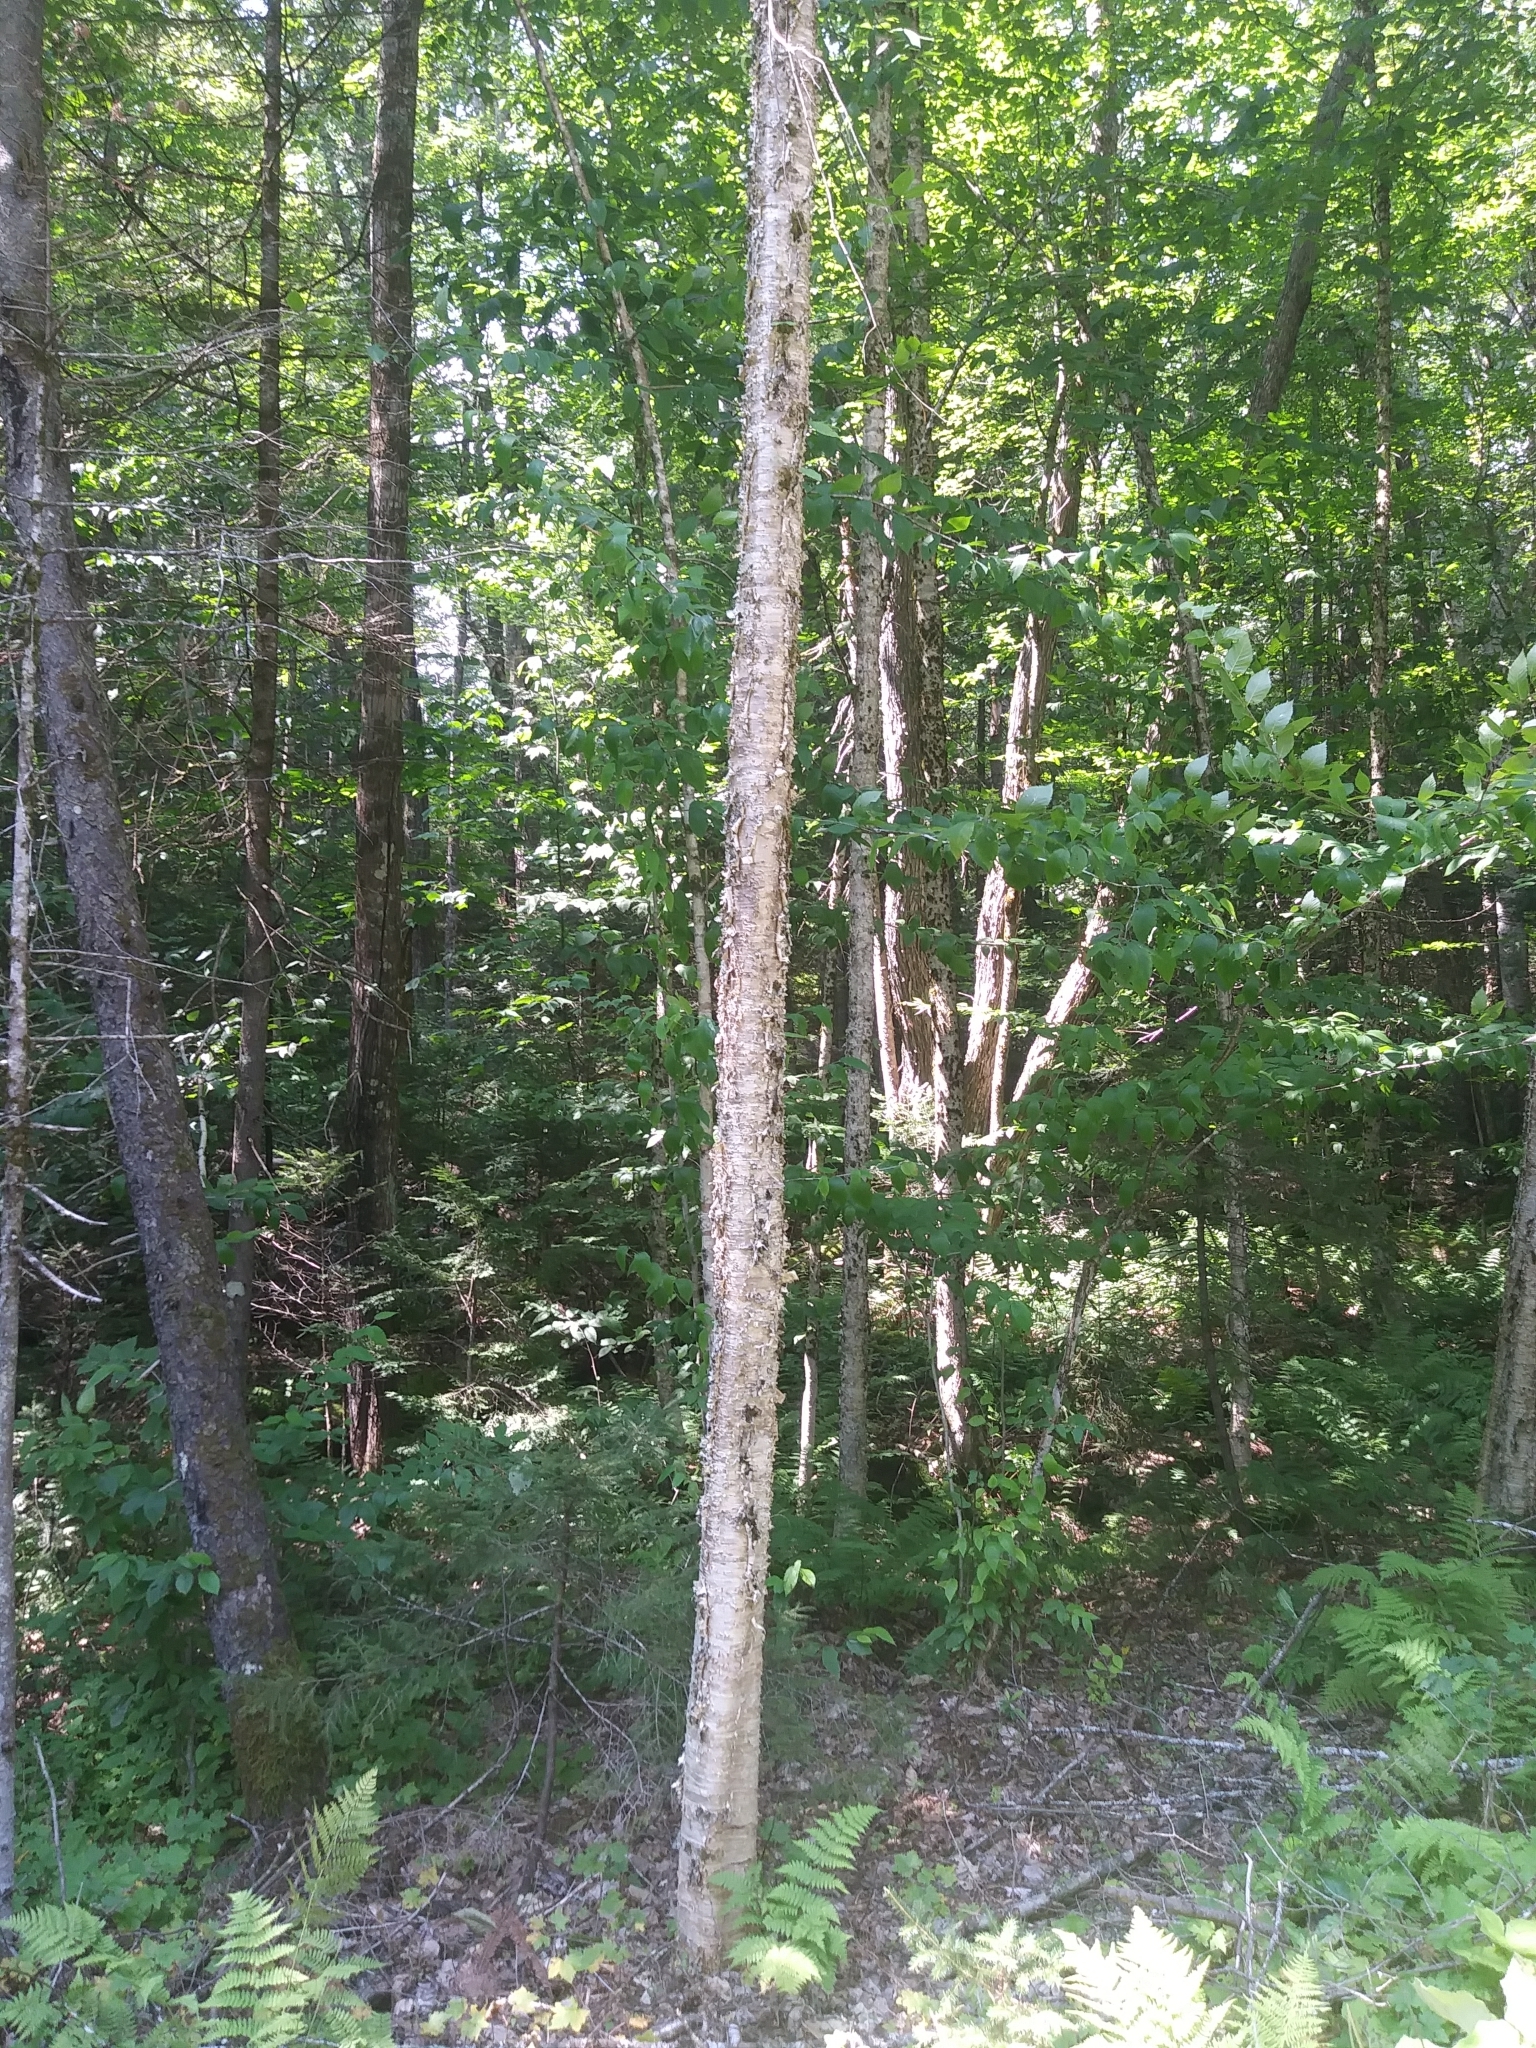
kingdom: Plantae
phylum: Tracheophyta
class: Magnoliopsida
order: Fagales
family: Betulaceae
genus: Betula
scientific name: Betula alleghaniensis
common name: Yellow birch
